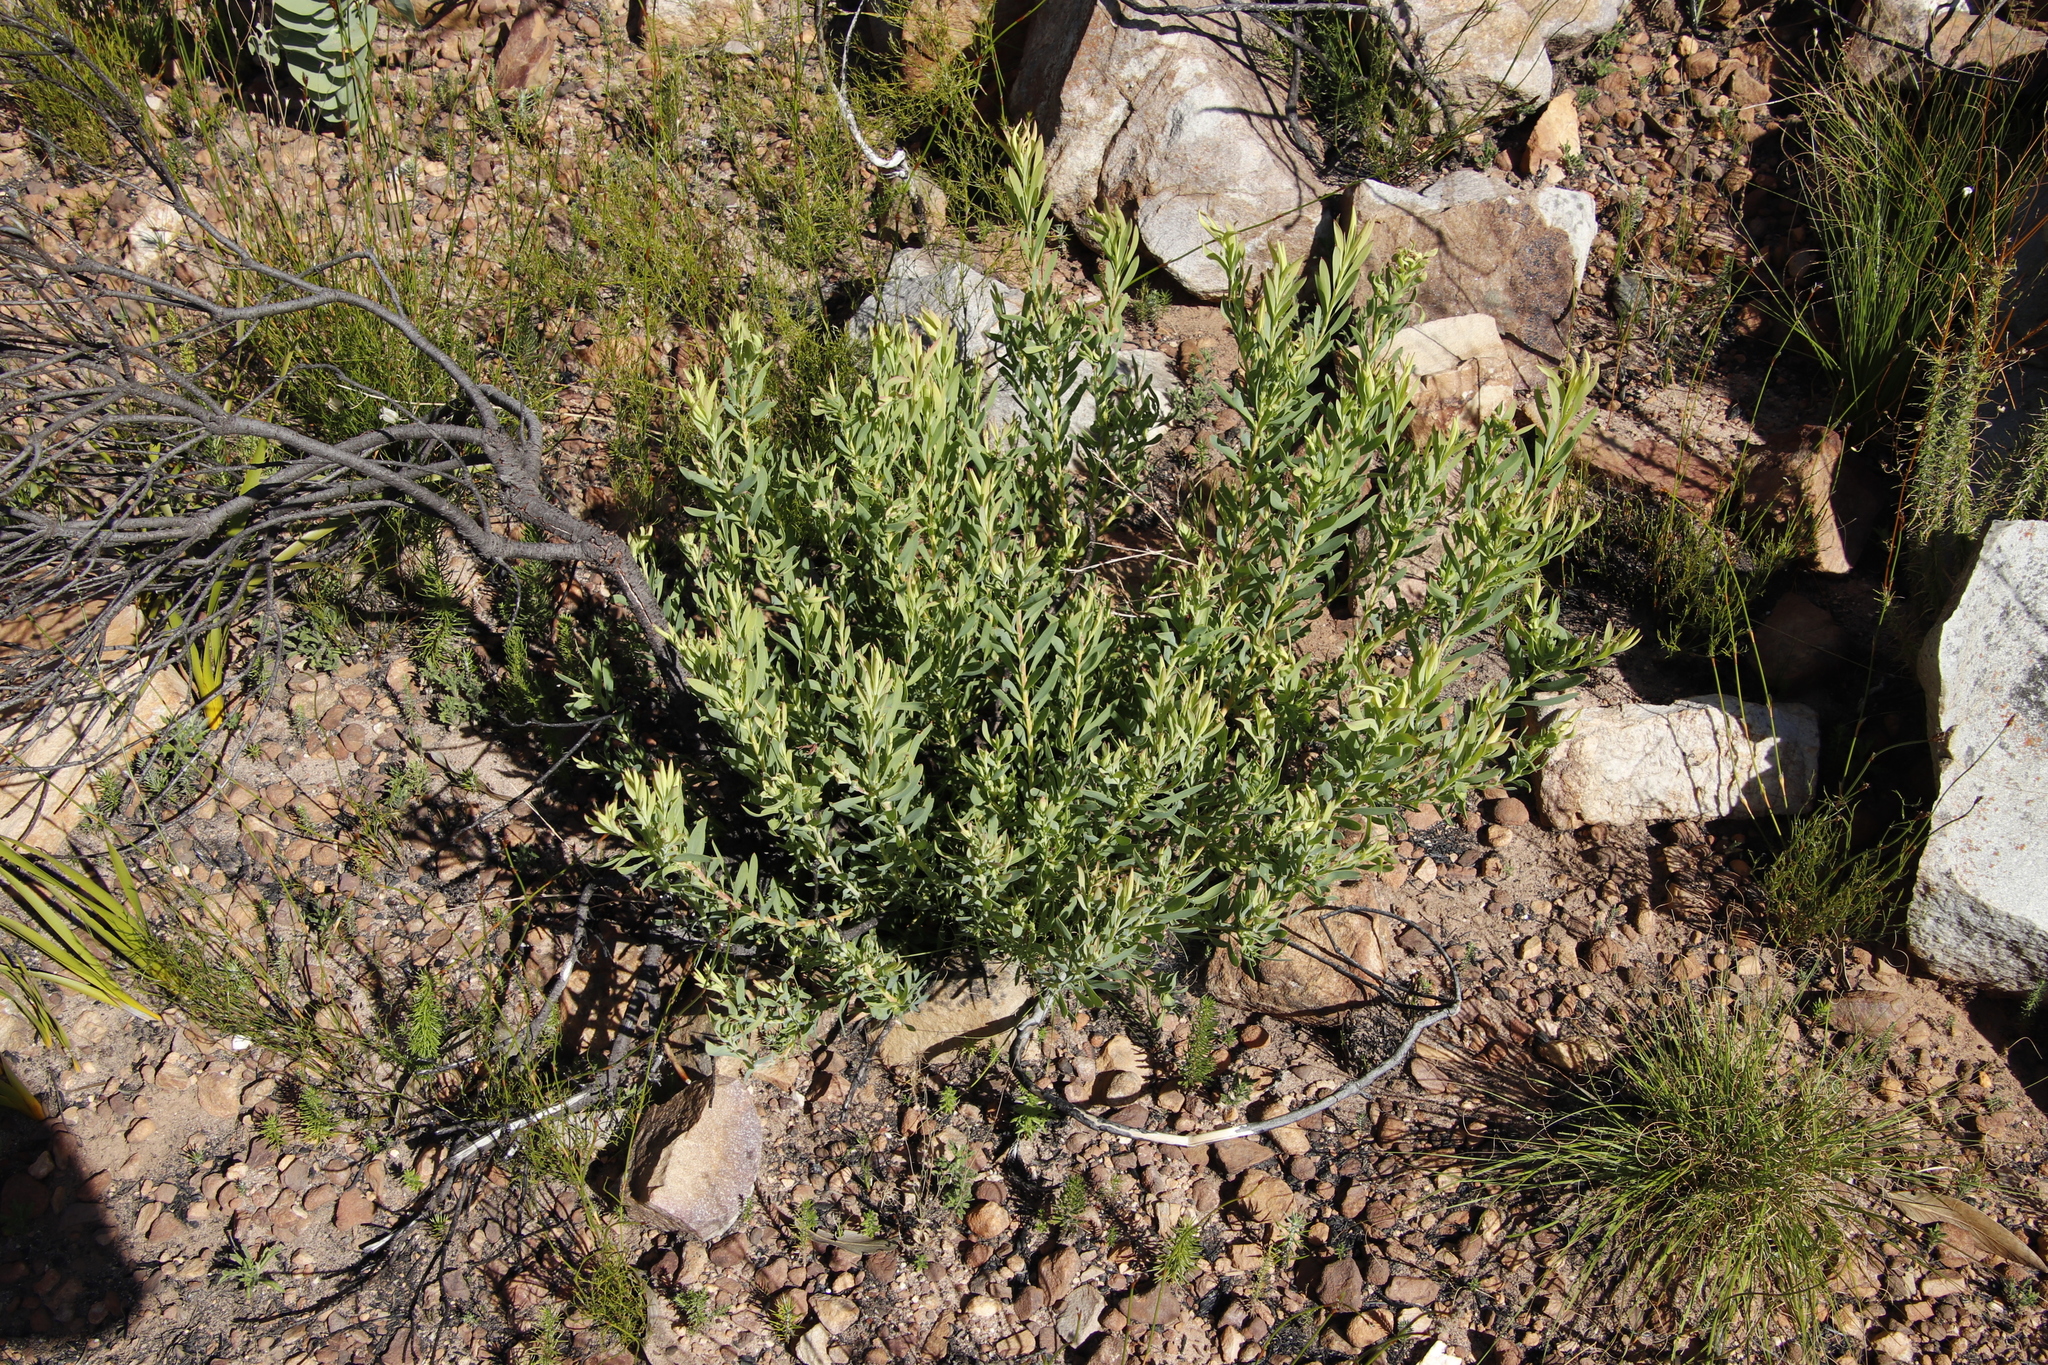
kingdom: Plantae
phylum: Tracheophyta
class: Magnoliopsida
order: Proteales
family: Proteaceae
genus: Leucadendron
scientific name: Leucadendron salignum
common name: Common sunshine conebush
